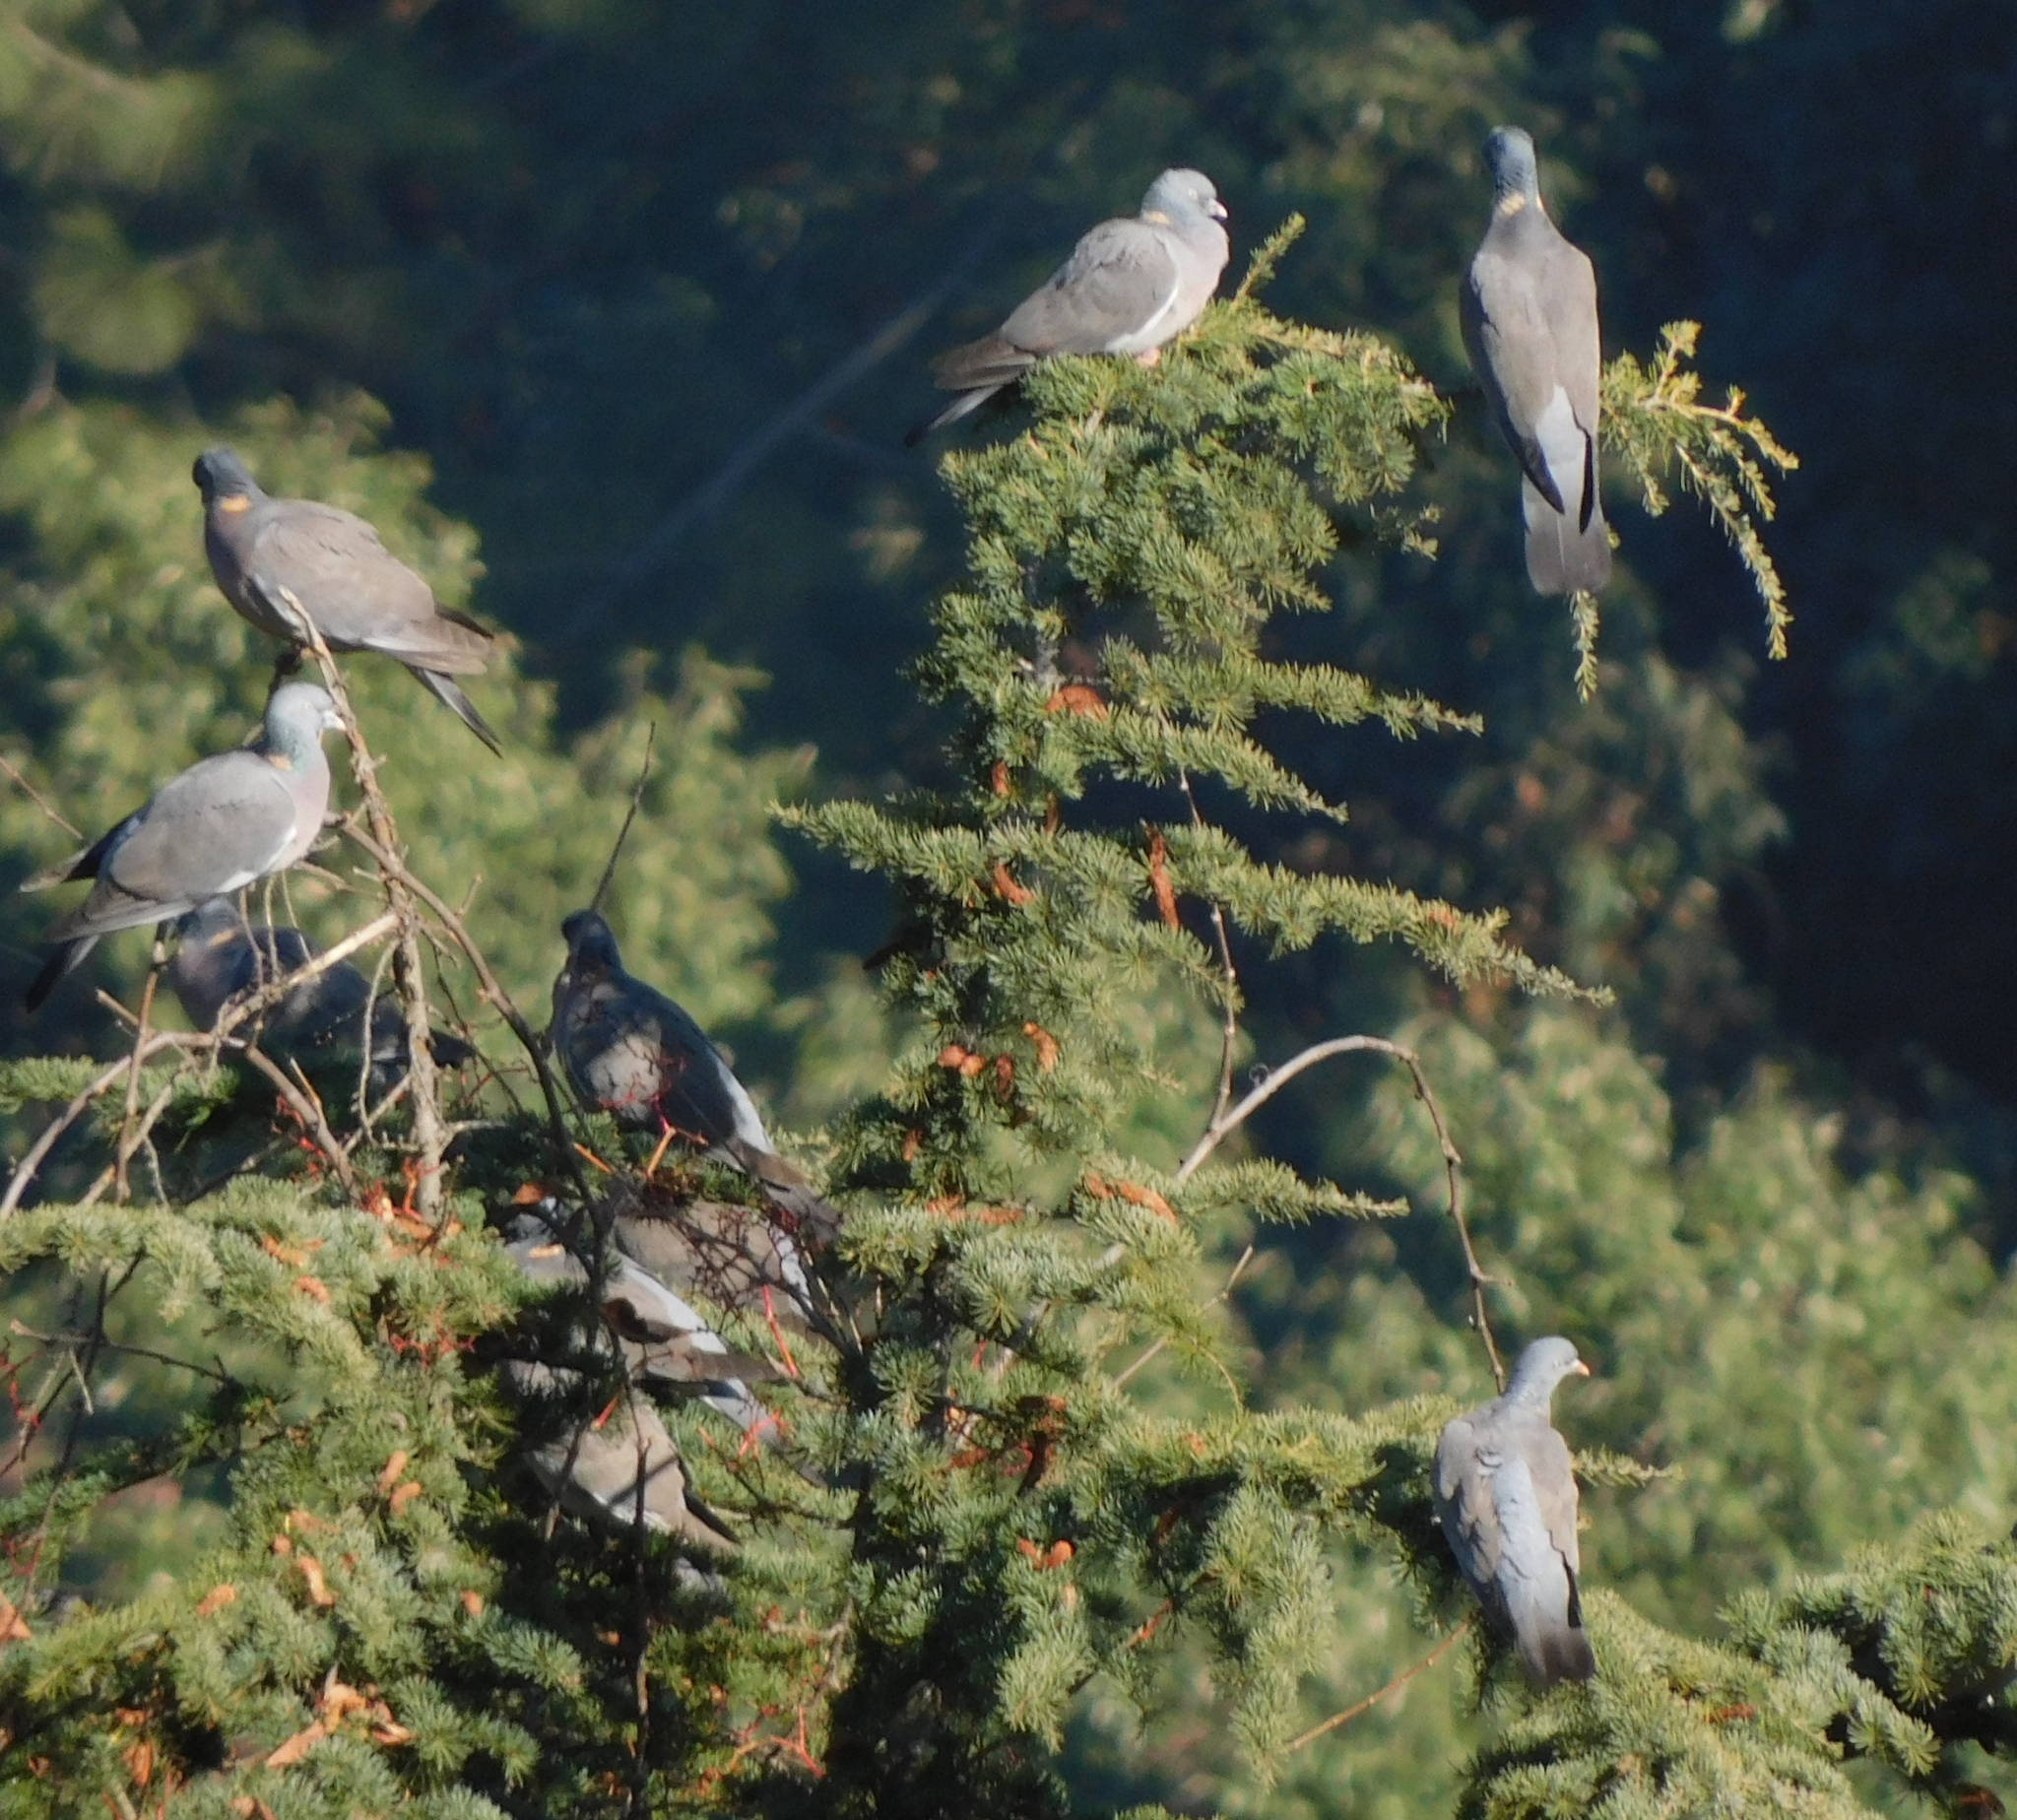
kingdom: Animalia
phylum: Chordata
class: Aves
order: Columbiformes
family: Columbidae
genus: Columba
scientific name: Columba palumbus
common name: Common wood pigeon
